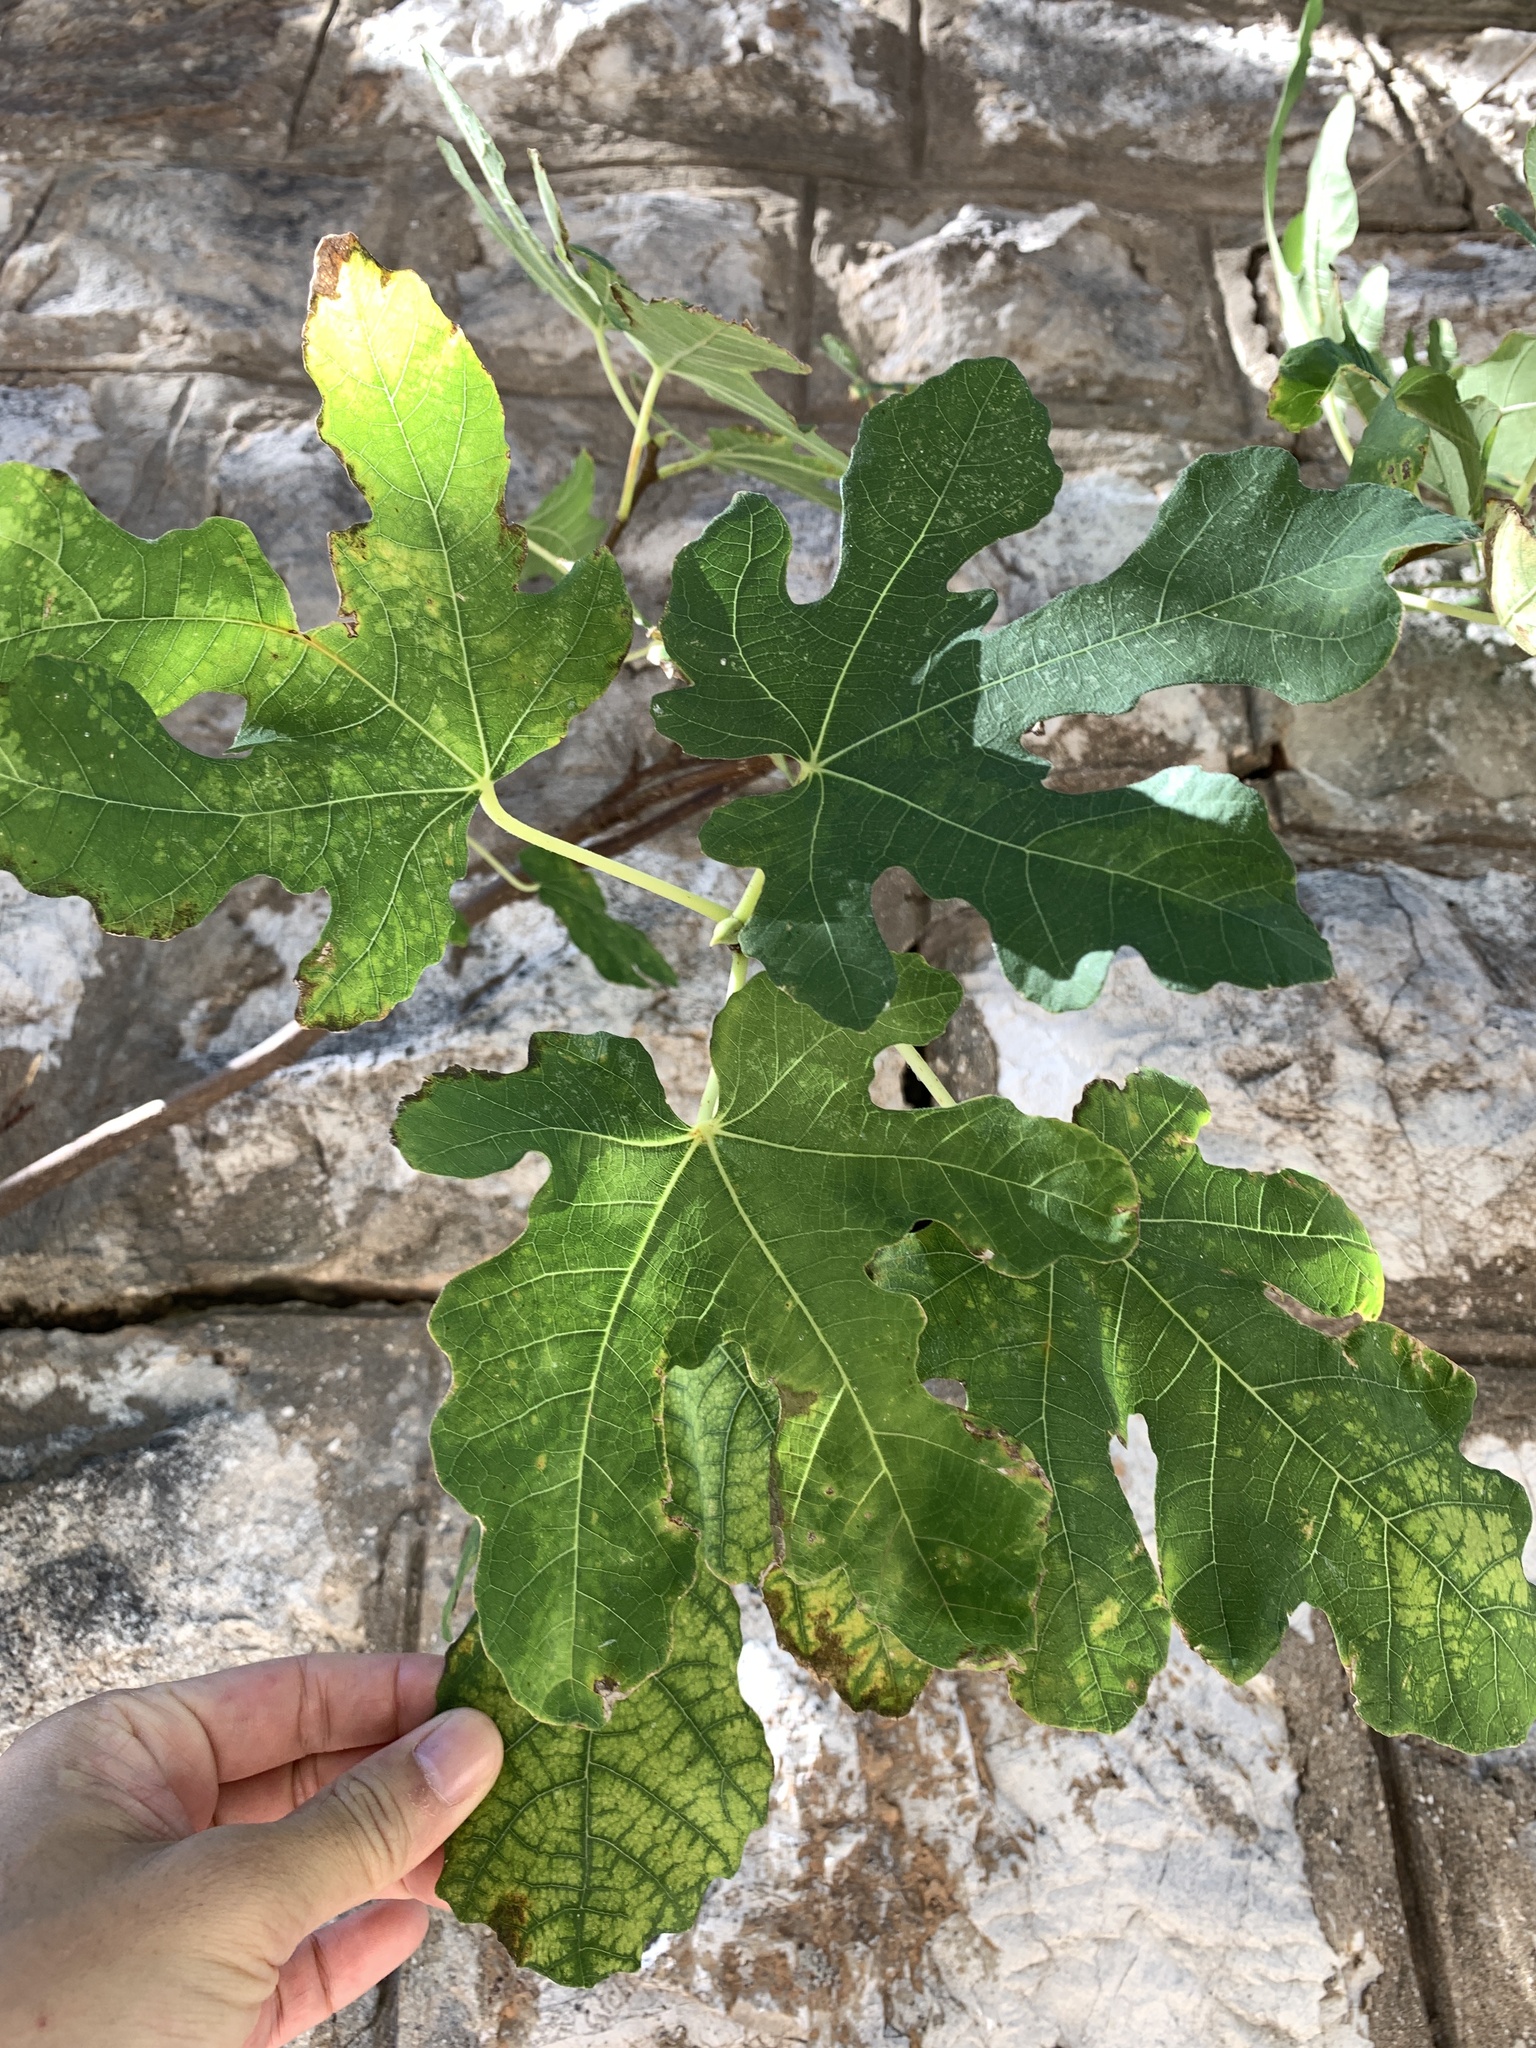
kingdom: Plantae
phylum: Tracheophyta
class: Magnoliopsida
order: Rosales
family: Moraceae
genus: Ficus
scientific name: Ficus carica
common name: Fig
